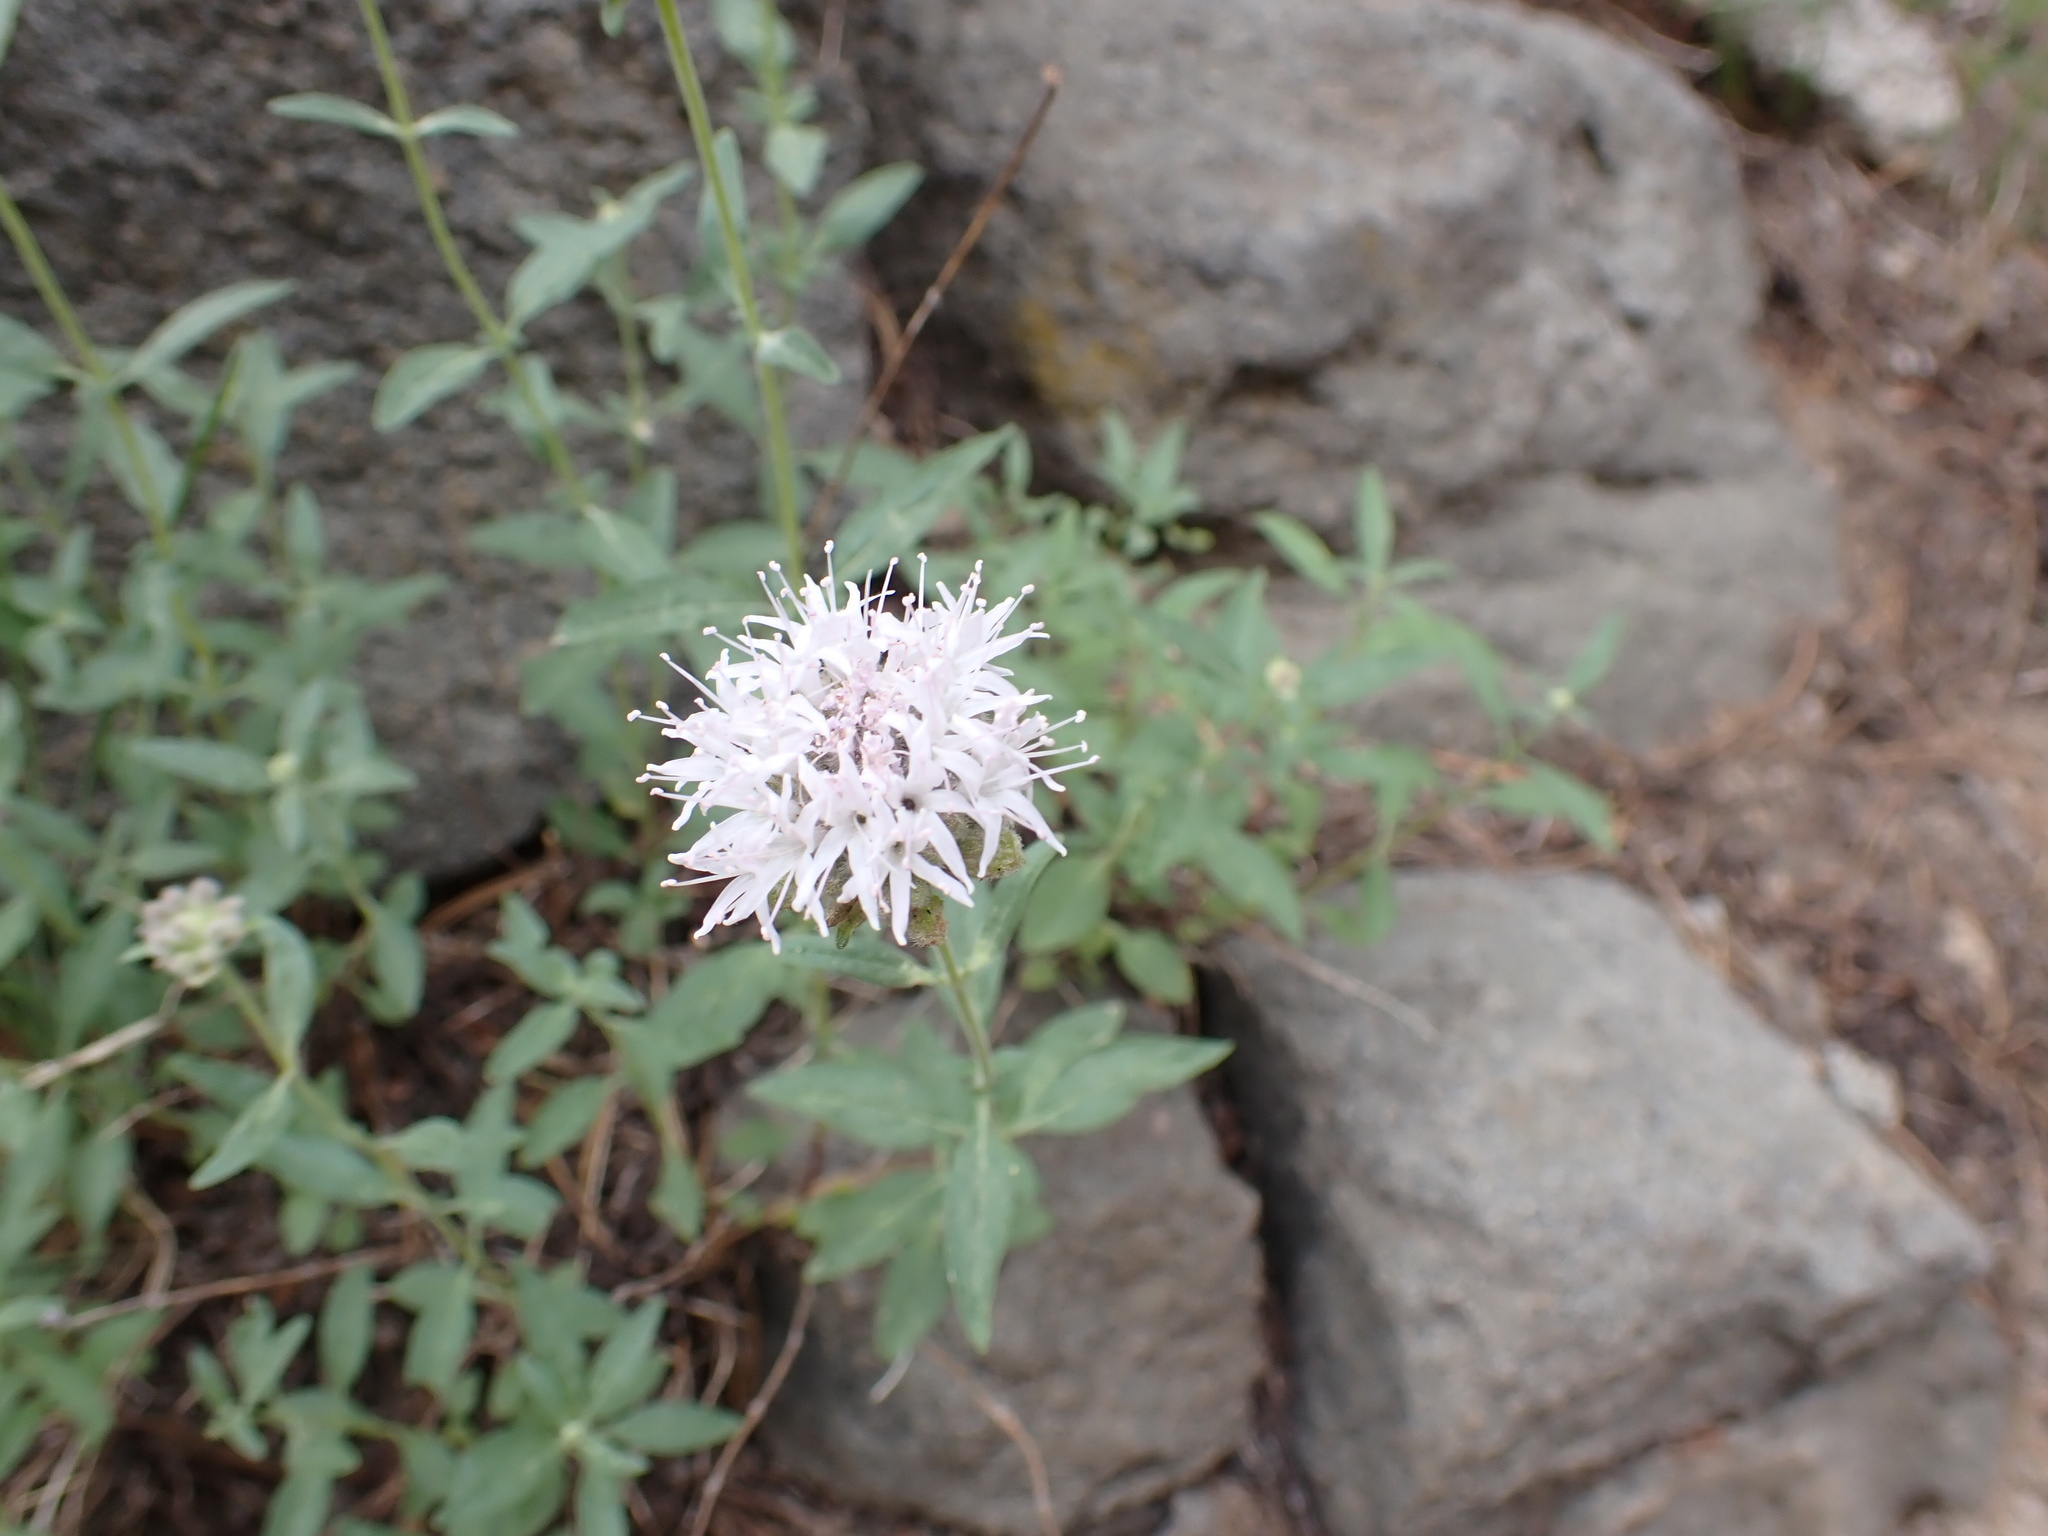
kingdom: Plantae
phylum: Tracheophyta
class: Magnoliopsida
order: Lamiales
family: Lamiaceae
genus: Monardella
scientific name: Monardella odoratissima
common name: Pacific monardella
